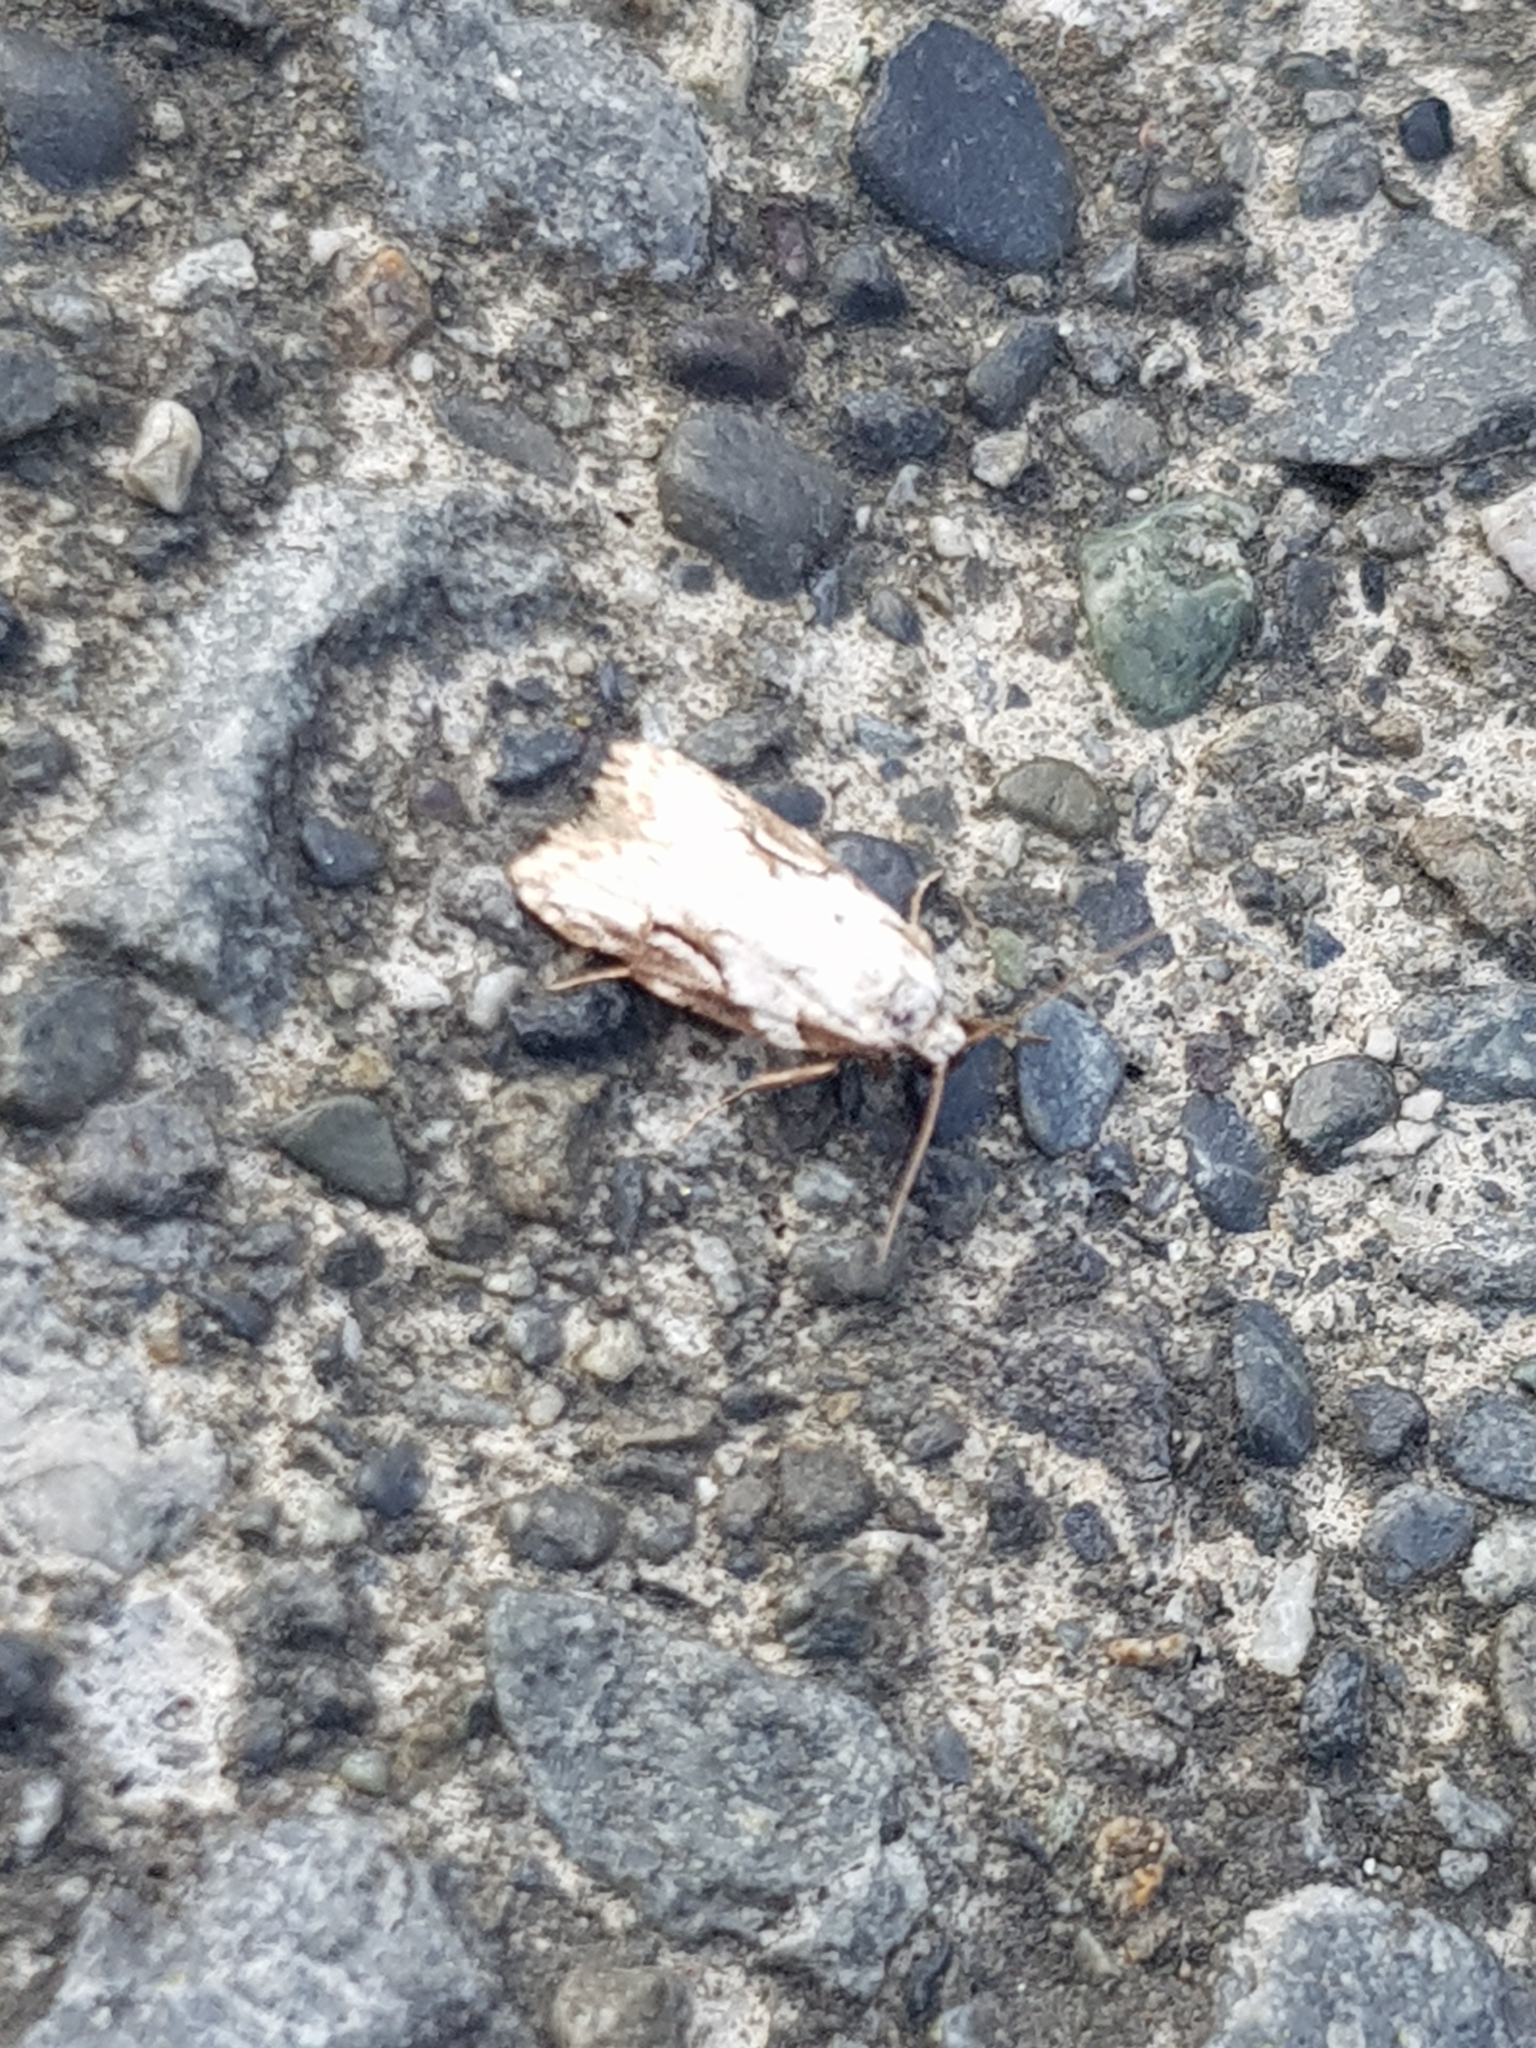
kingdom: Animalia
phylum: Arthropoda
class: Insecta
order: Lepidoptera
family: Oecophoridae
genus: Izatha
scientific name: Izatha mesoschista
